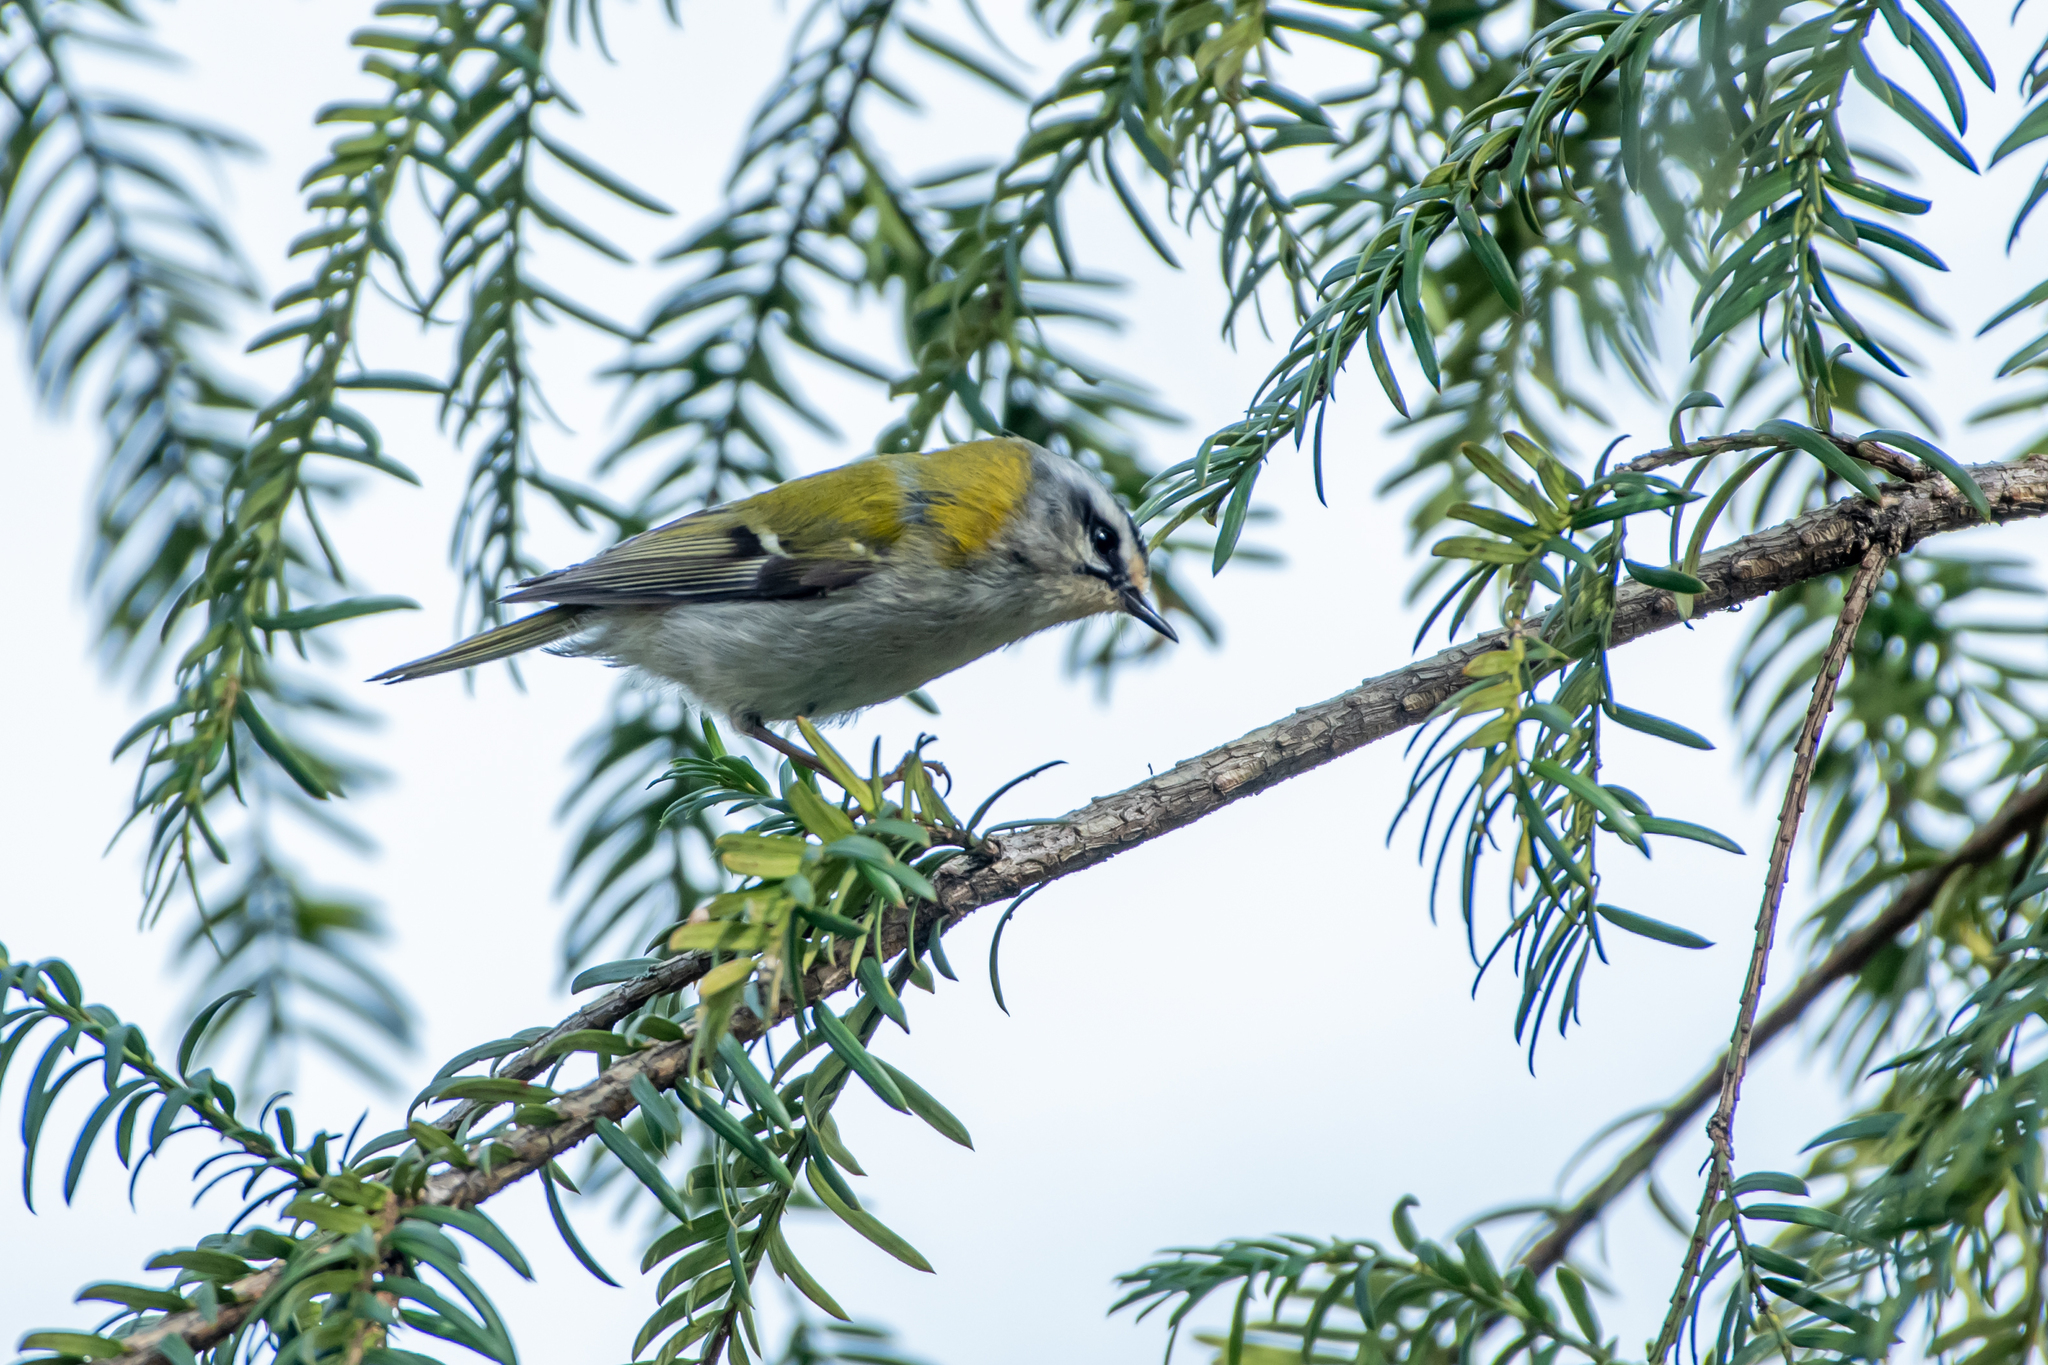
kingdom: Animalia
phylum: Chordata
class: Aves
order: Passeriformes
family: Regulidae
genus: Regulus
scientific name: Regulus ignicapilla
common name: Firecrest
